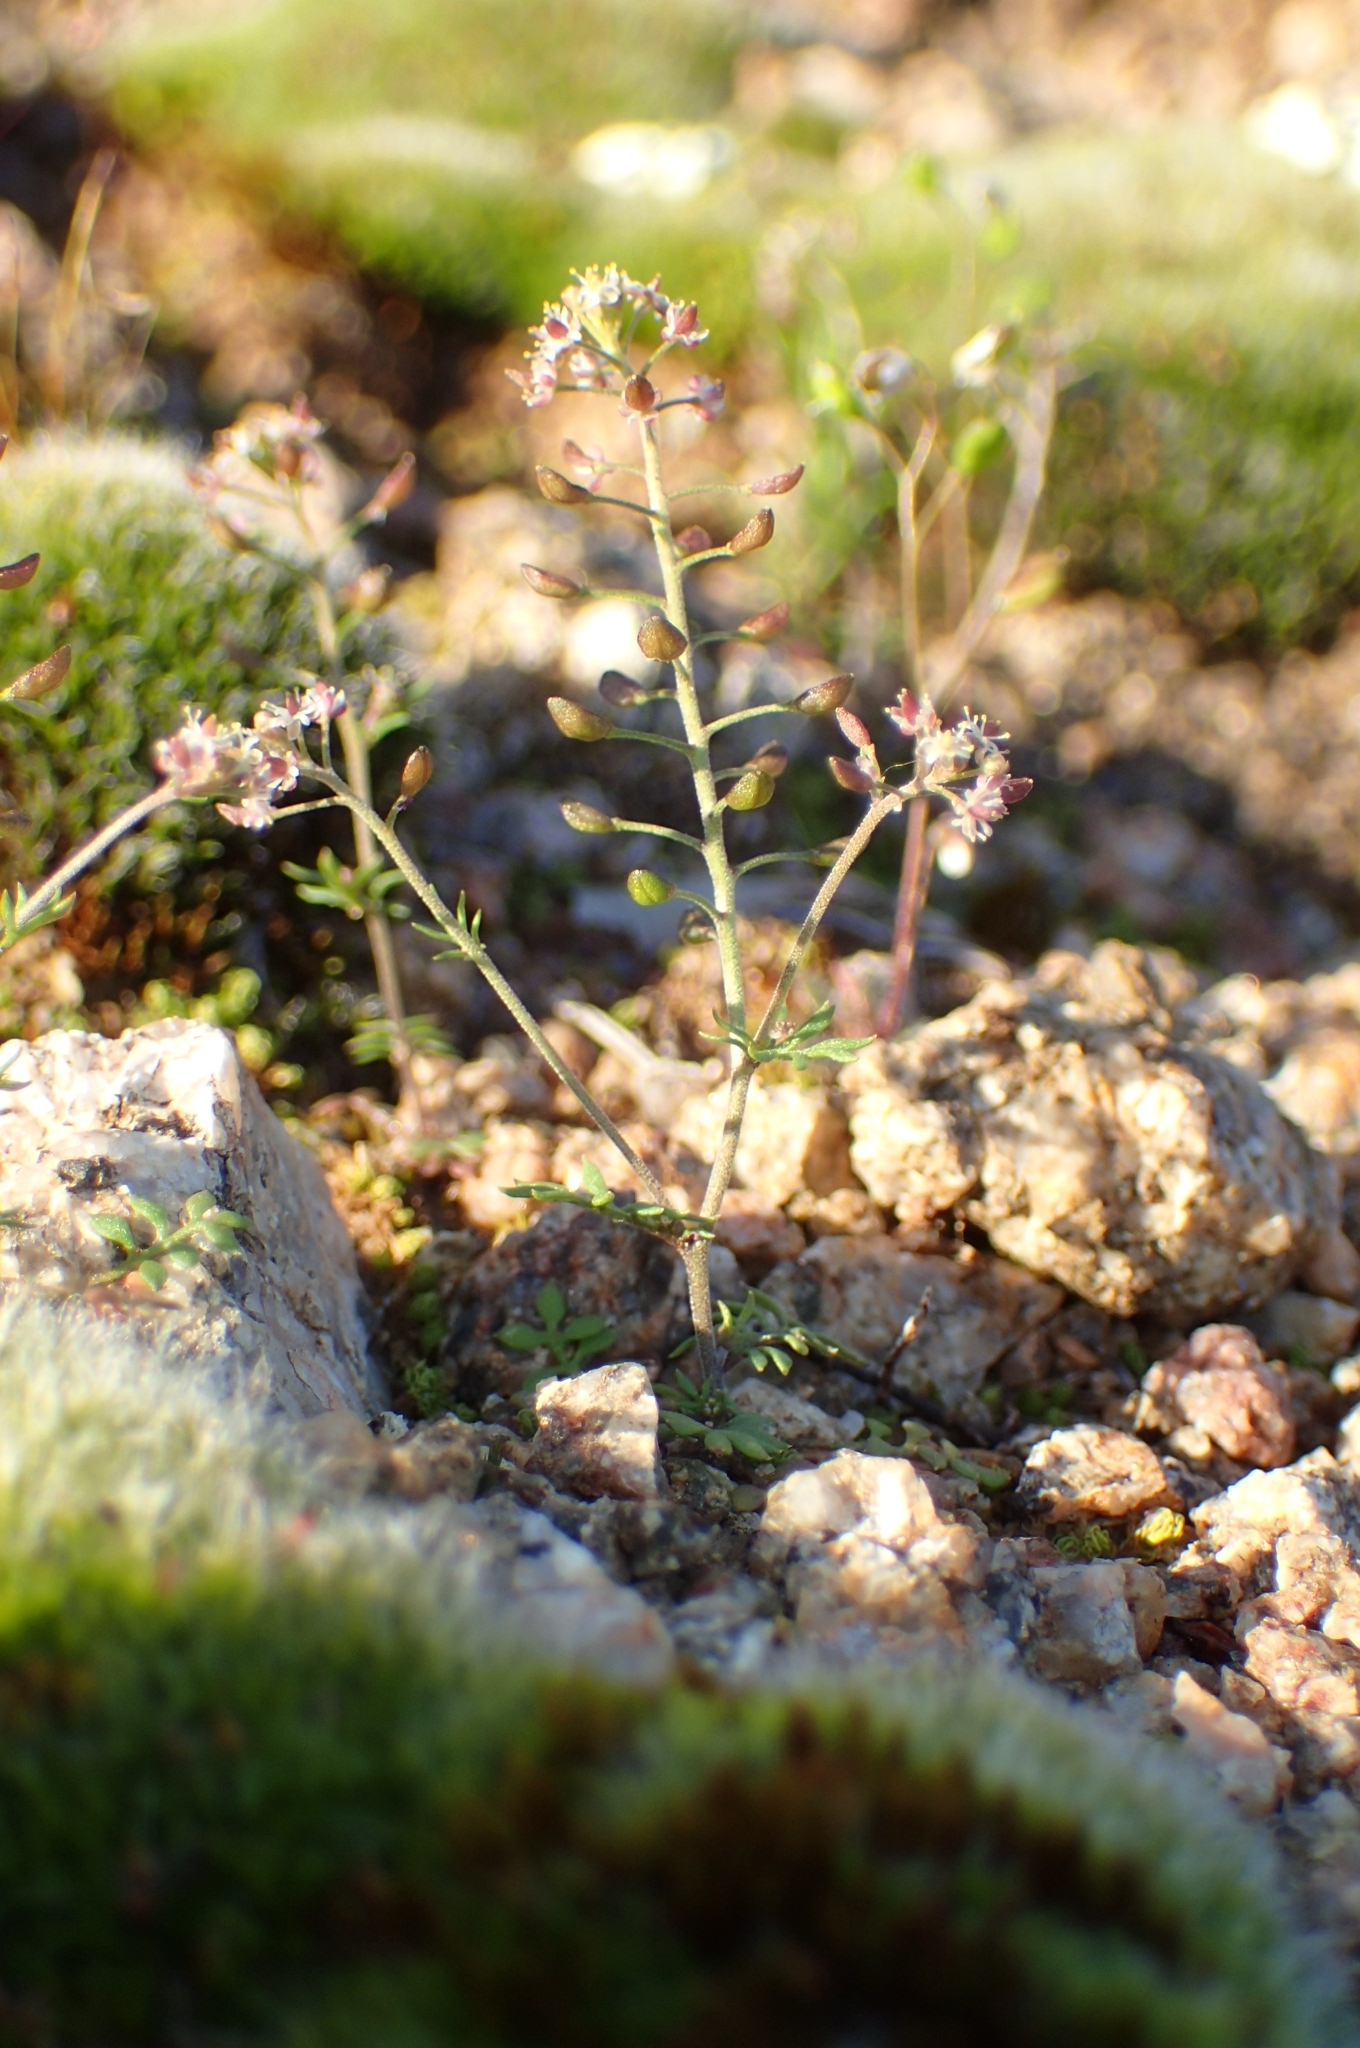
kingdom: Plantae
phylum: Tracheophyta
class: Magnoliopsida
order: Brassicales
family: Brassicaceae
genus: Hornungia
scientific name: Hornungia petraea
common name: Hutchinsia
